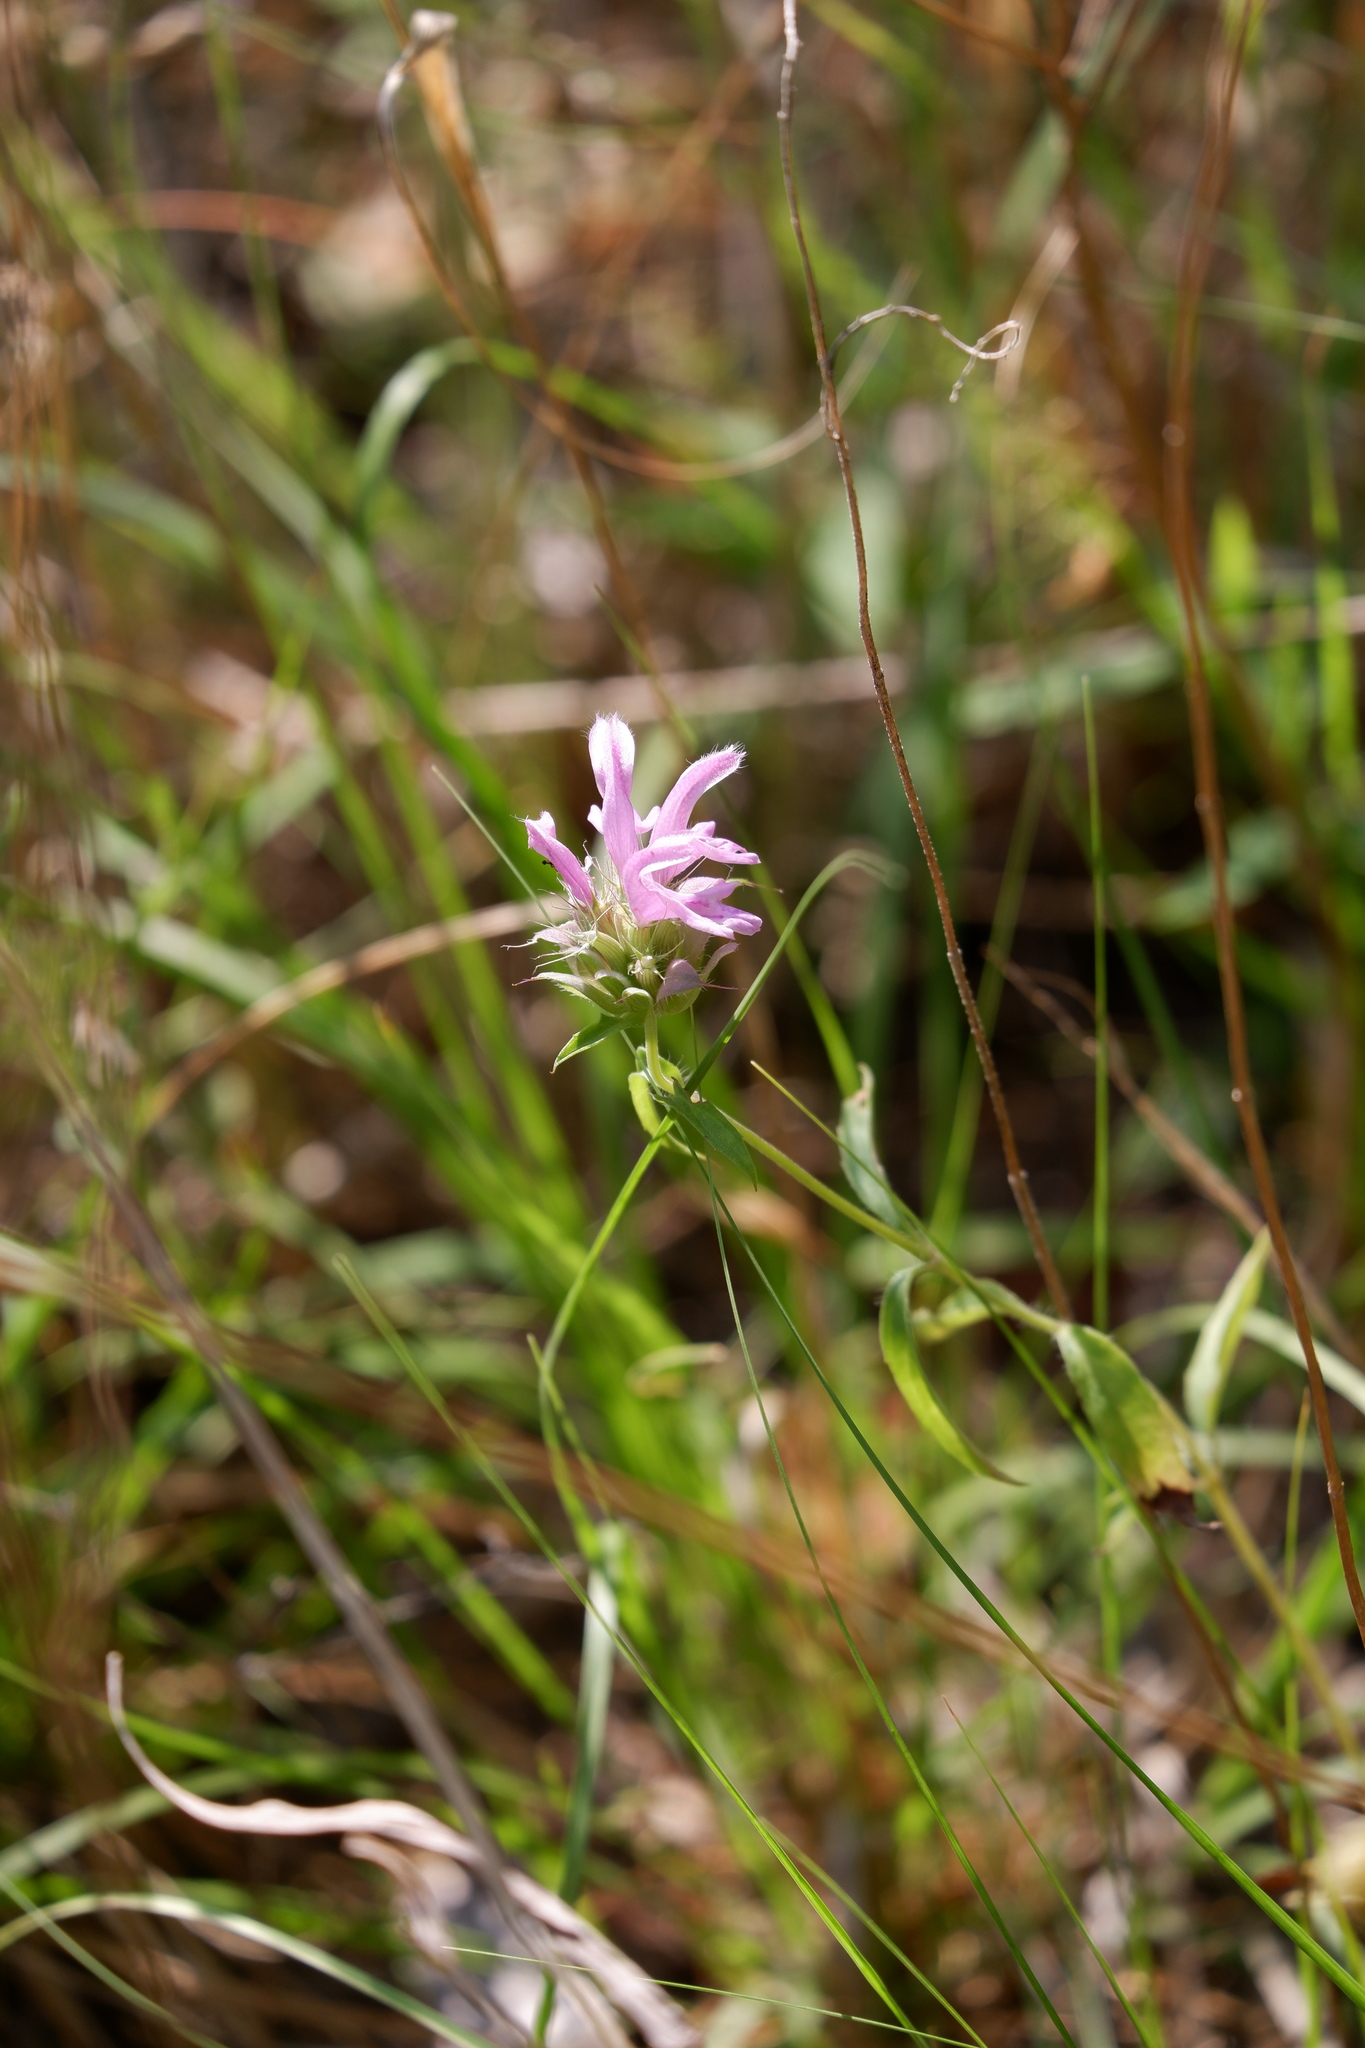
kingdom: Plantae
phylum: Tracheophyta
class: Magnoliopsida
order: Lamiales
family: Lamiaceae
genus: Monarda
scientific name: Monarda citriodora
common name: Lemon beebalm
